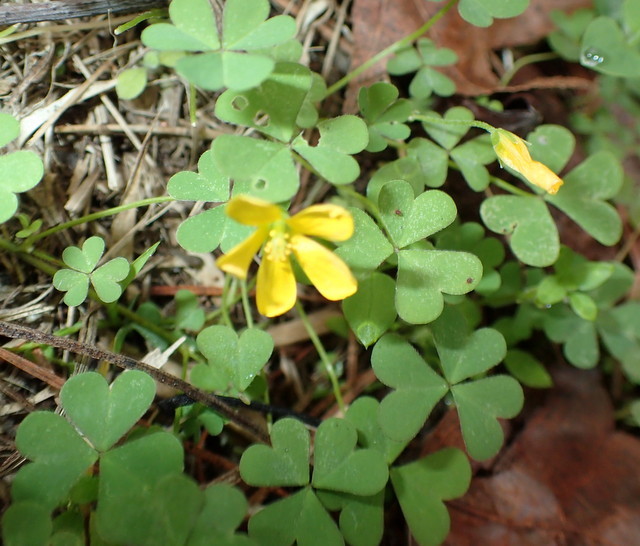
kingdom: Plantae
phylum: Tracheophyta
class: Magnoliopsida
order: Oxalidales
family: Oxalidaceae
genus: Oxalis
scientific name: Oxalis corniculata
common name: Procumbent yellow-sorrel
